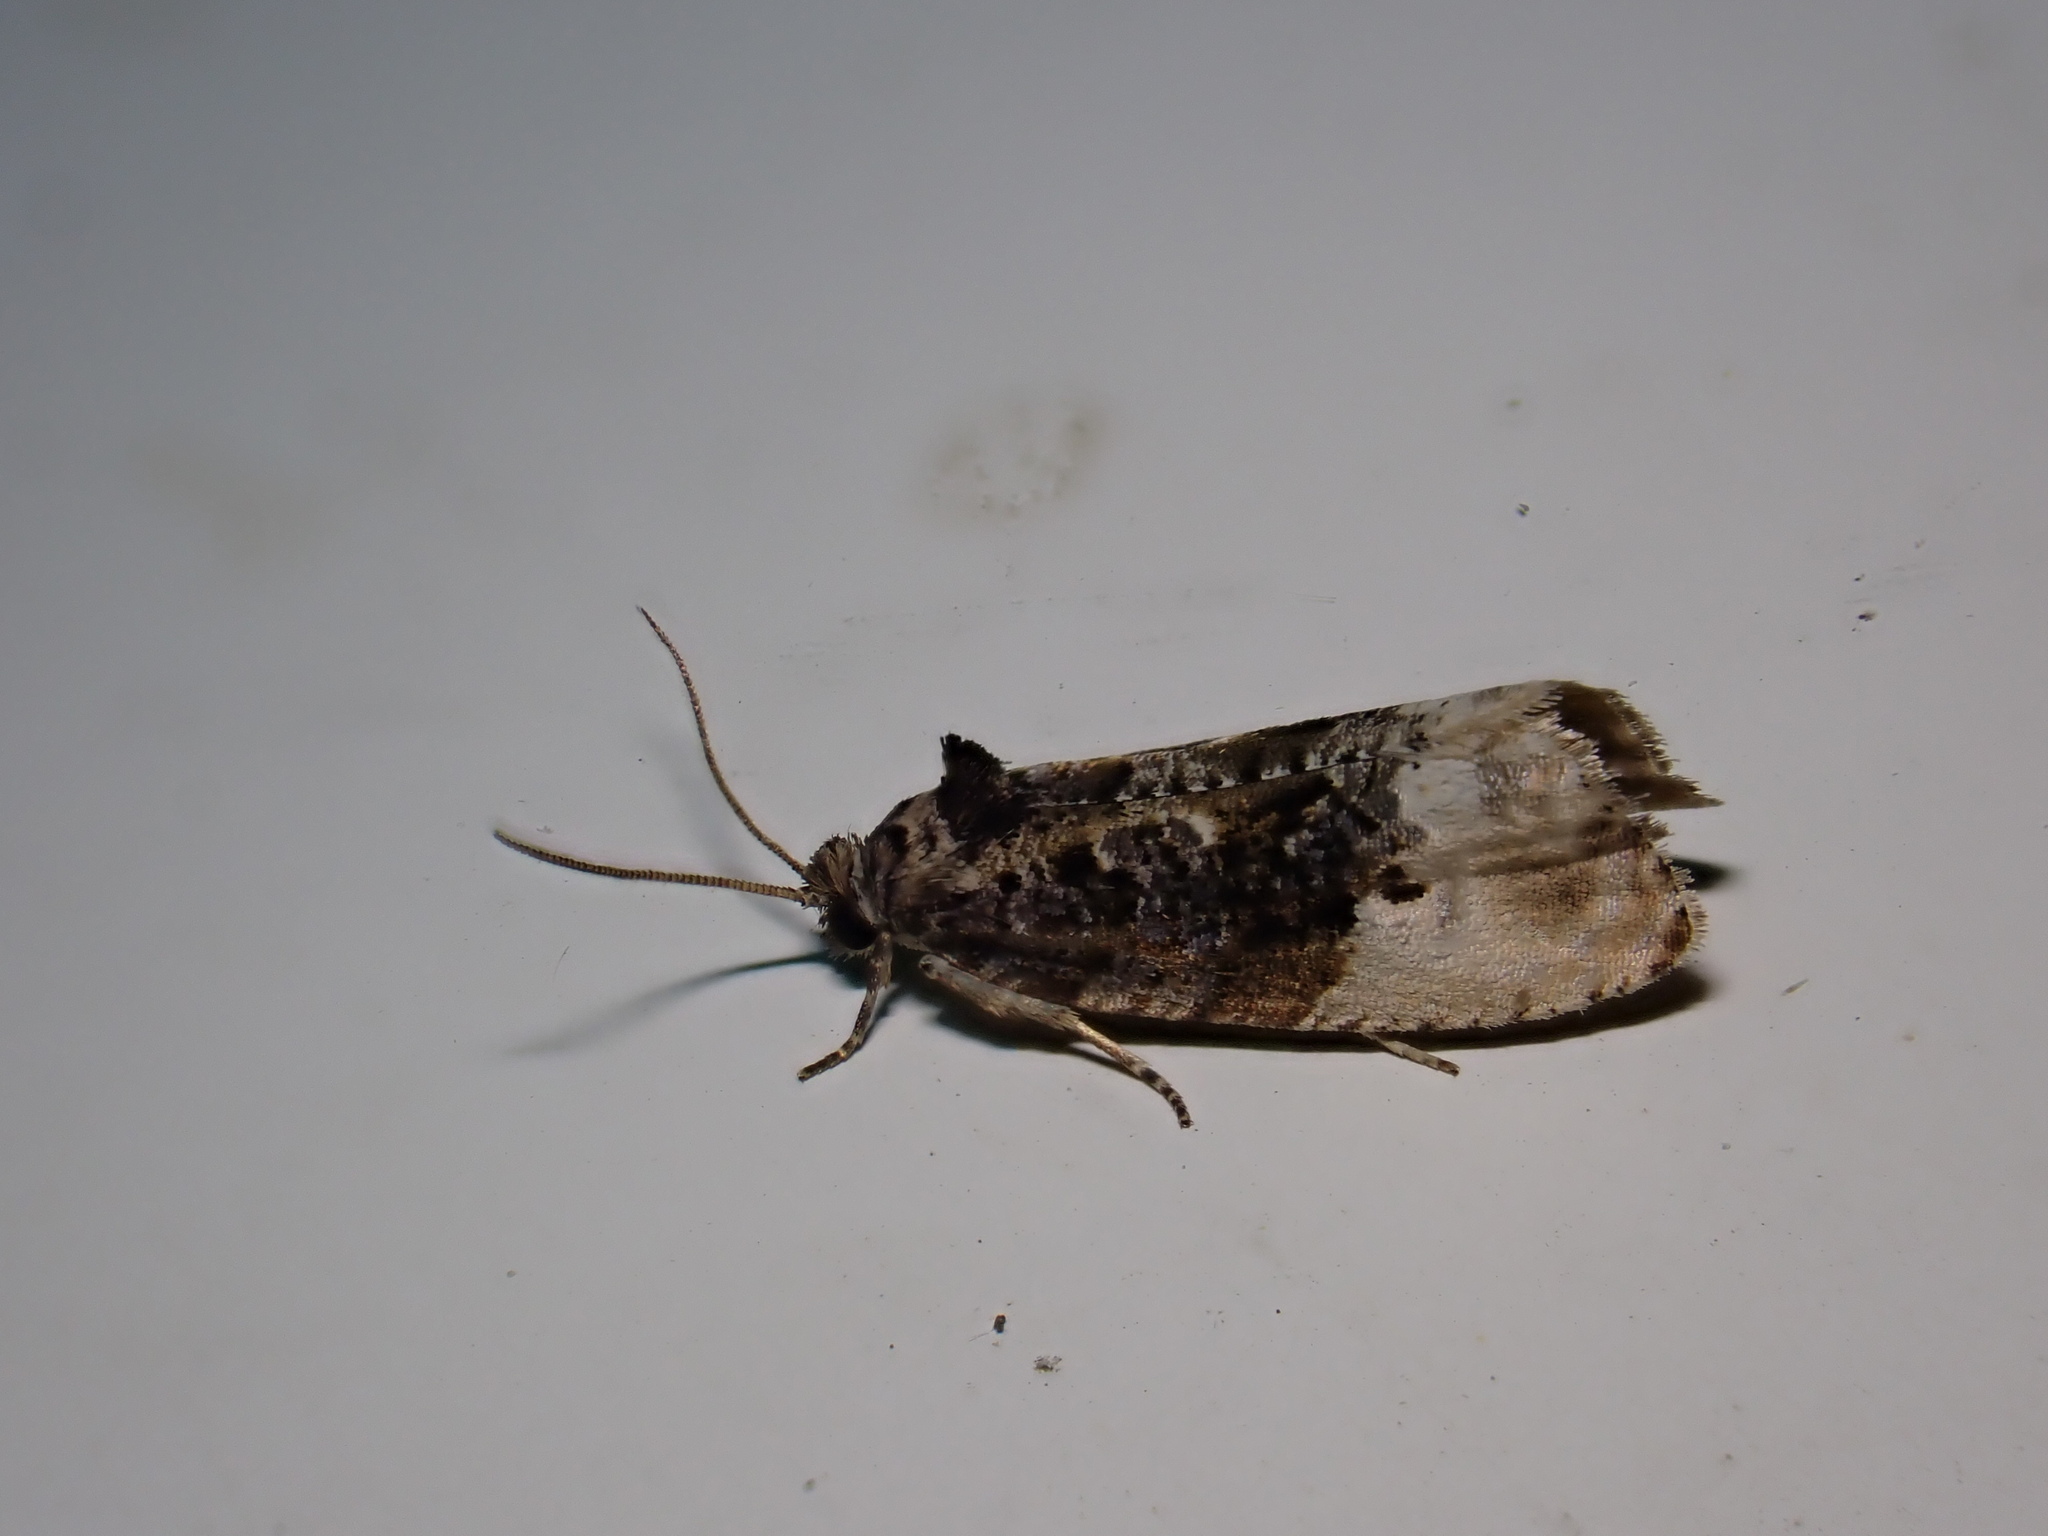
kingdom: Animalia
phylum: Arthropoda
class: Insecta
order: Lepidoptera
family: Tortricidae
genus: Hedya
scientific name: Hedya nubiferana
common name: Marbled orchard tortrix
